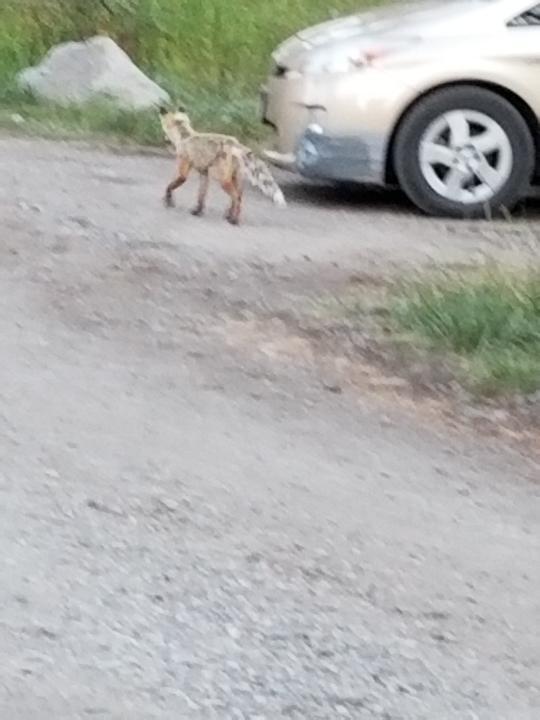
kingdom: Animalia
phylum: Chordata
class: Mammalia
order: Carnivora
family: Canidae
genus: Vulpes
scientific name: Vulpes vulpes
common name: Red fox
